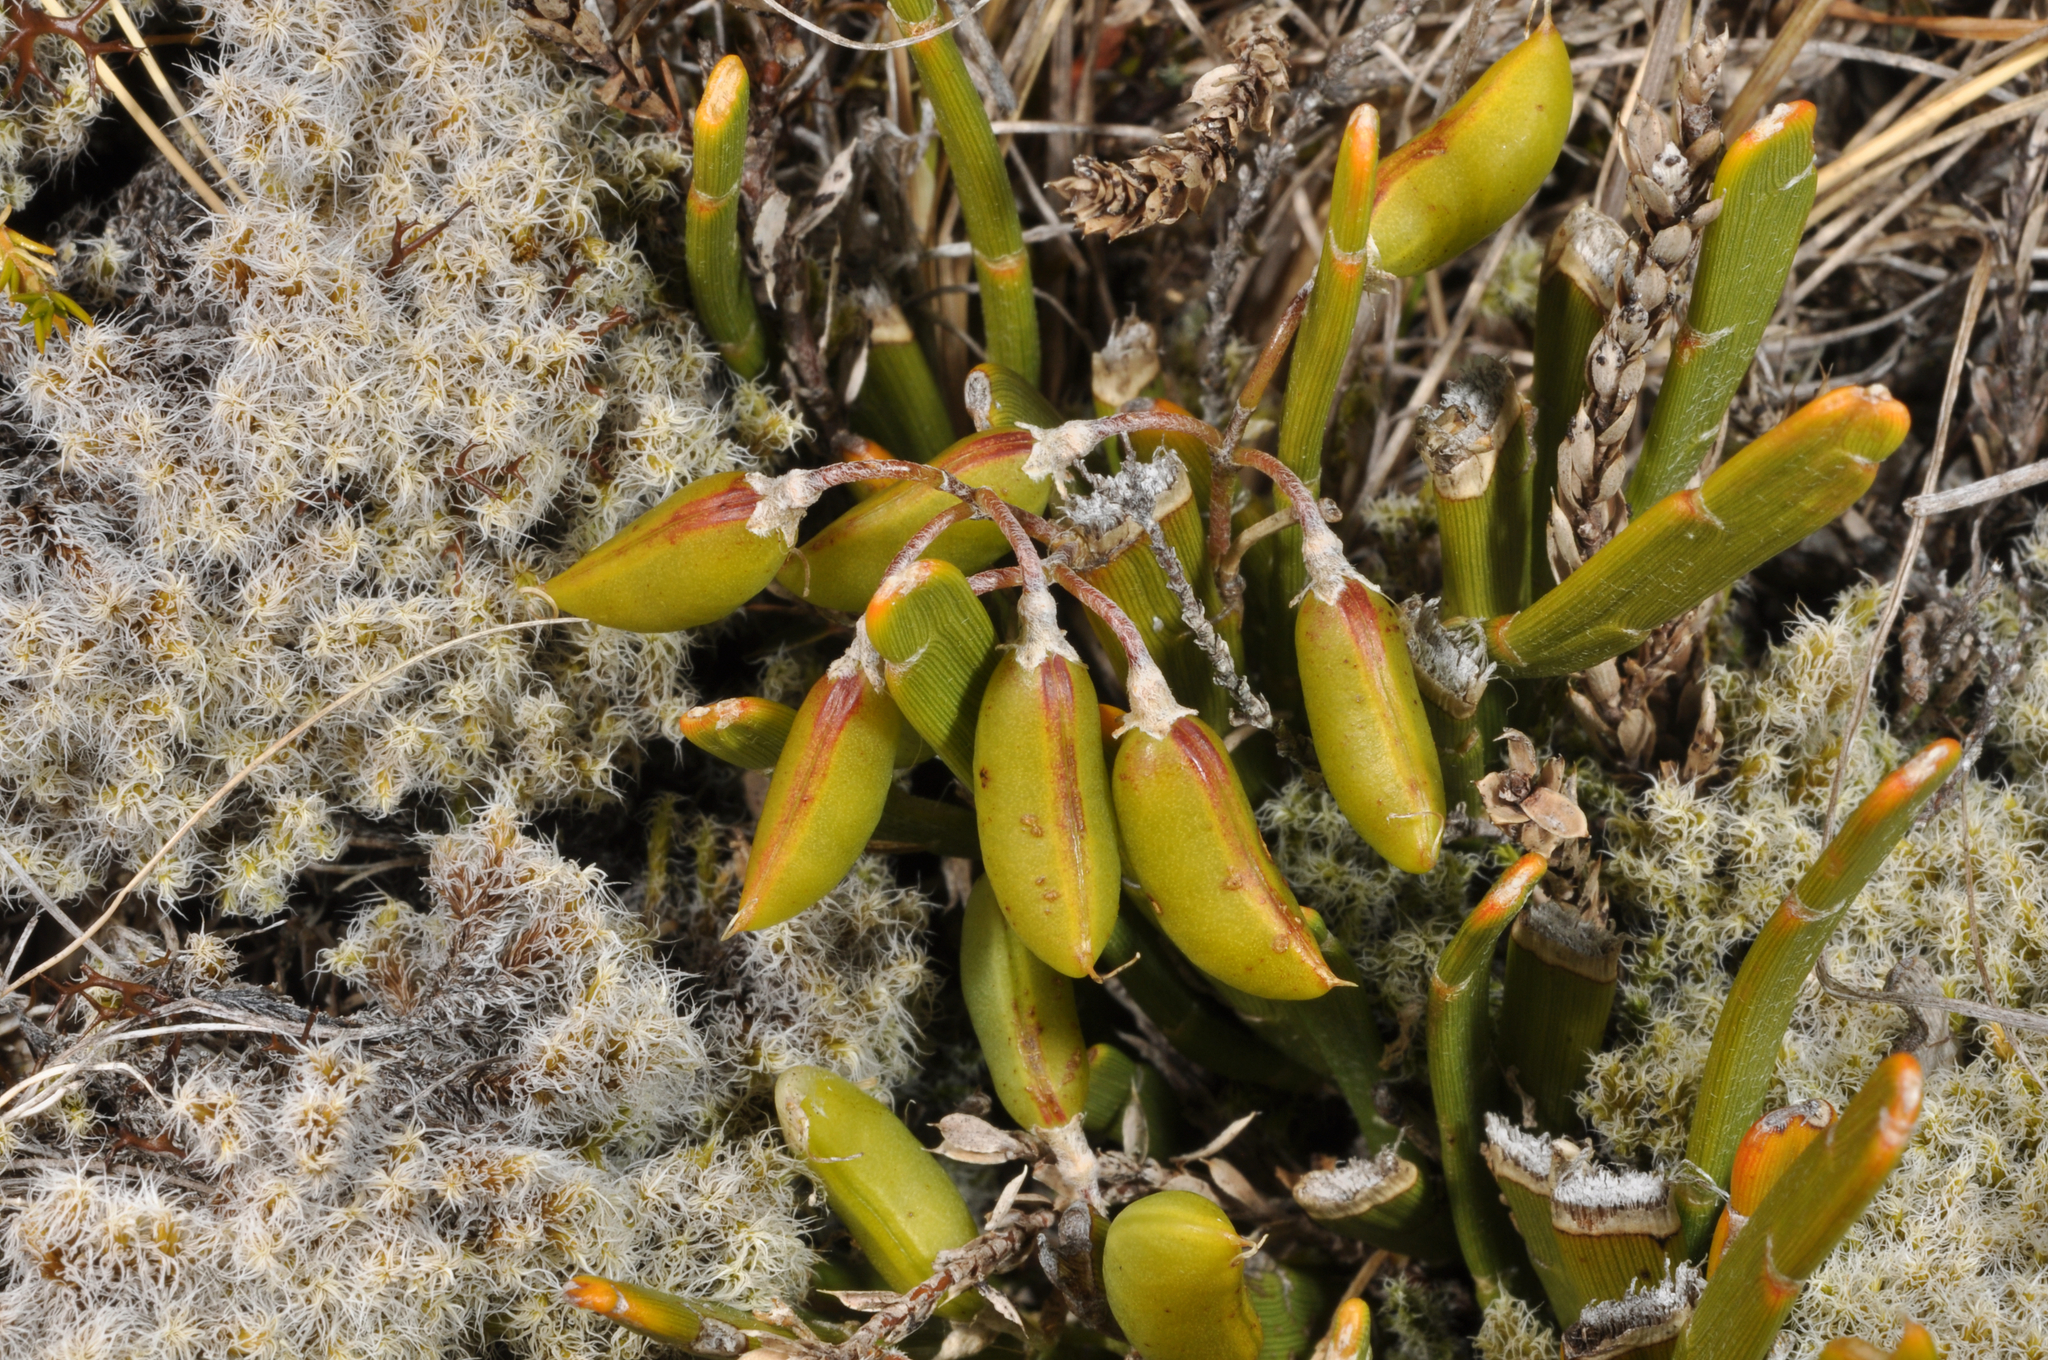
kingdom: Plantae
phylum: Tracheophyta
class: Magnoliopsida
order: Fabales
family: Fabaceae
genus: Carmichaelia
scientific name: Carmichaelia monroi
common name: Stout dwarf broom
